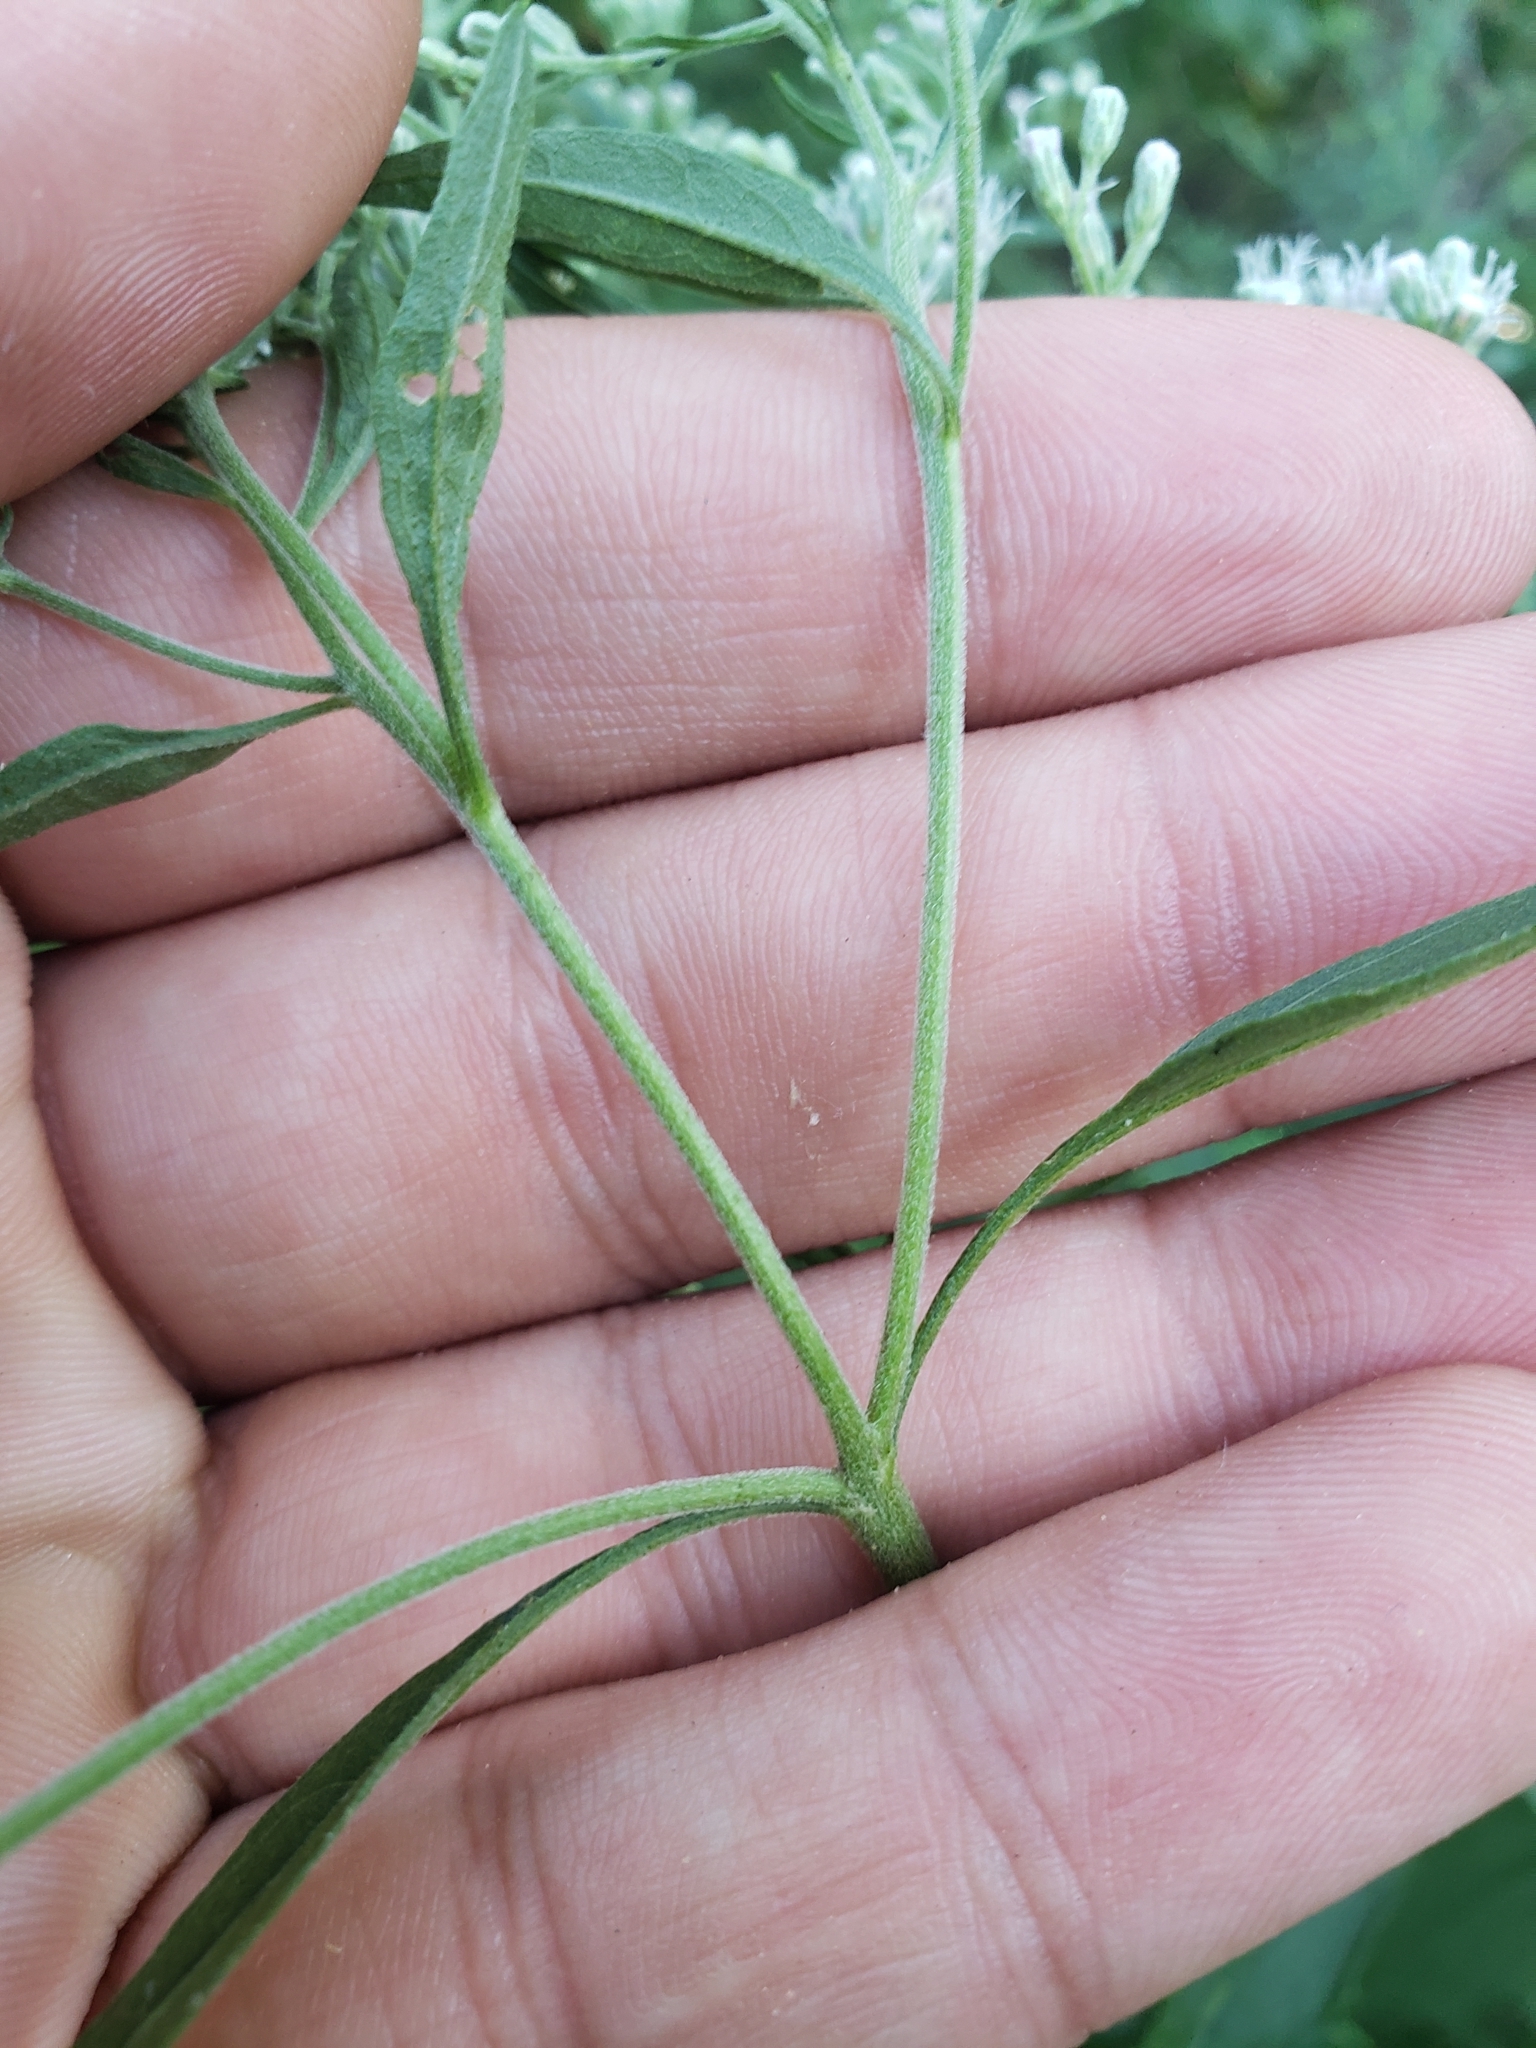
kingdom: Plantae
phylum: Tracheophyta
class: Magnoliopsida
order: Asterales
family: Asteraceae
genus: Eupatorium
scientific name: Eupatorium serotinum
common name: Late boneset
